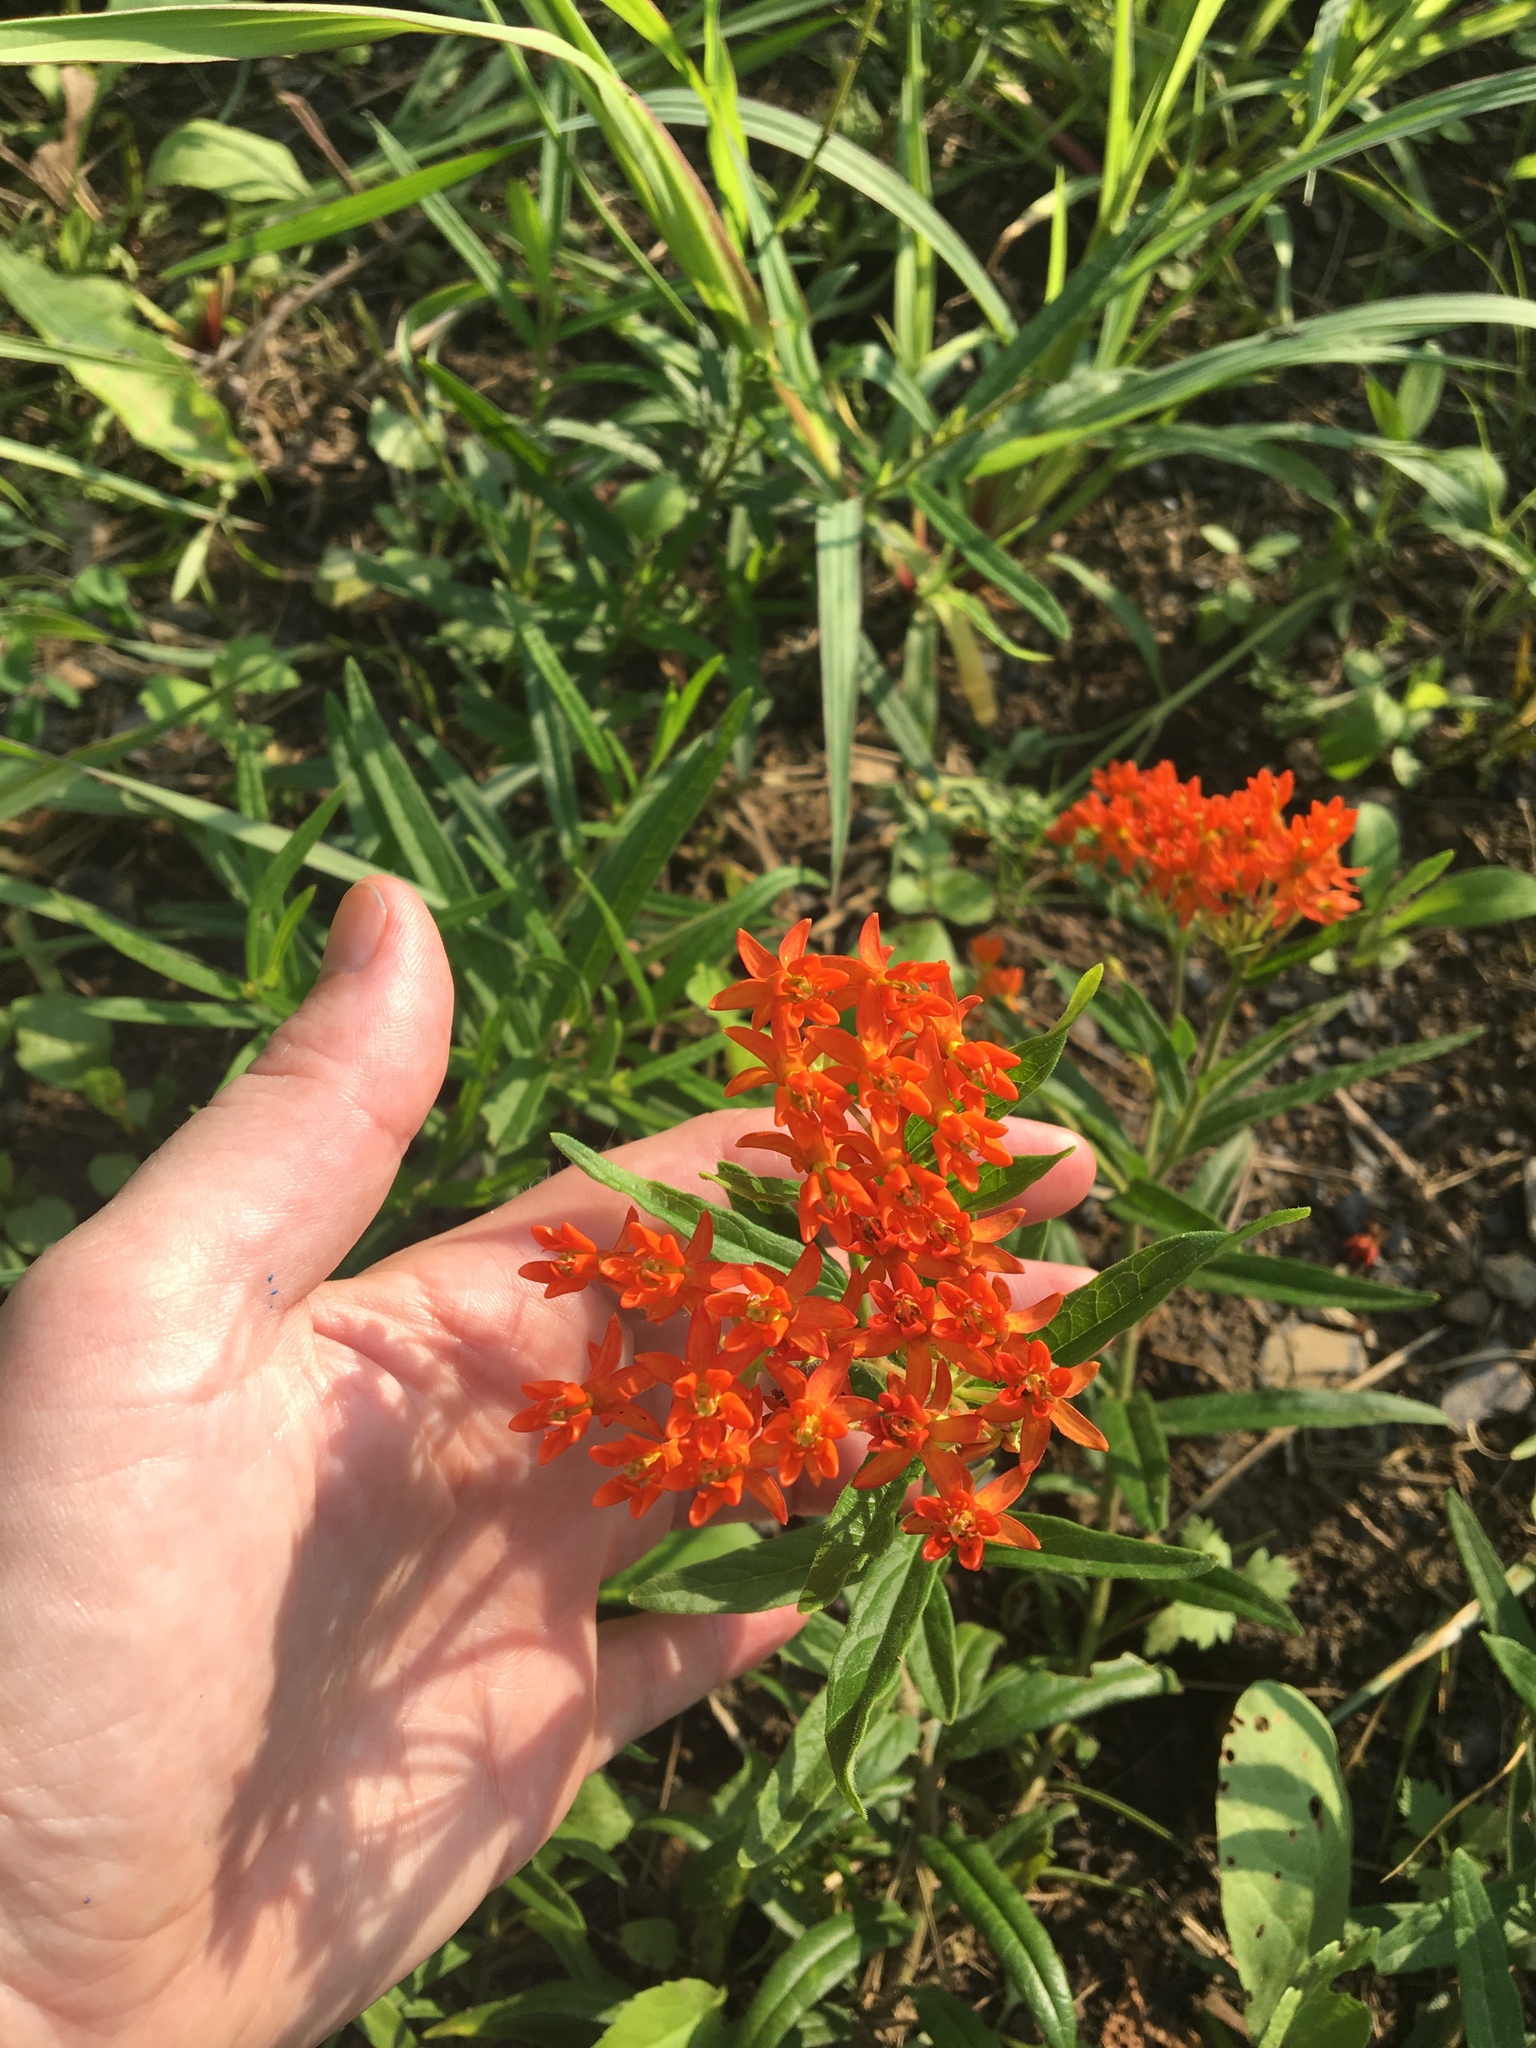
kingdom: Plantae
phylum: Tracheophyta
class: Magnoliopsida
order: Gentianales
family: Apocynaceae
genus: Asclepias
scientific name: Asclepias tuberosa
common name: Butterfly milkweed
